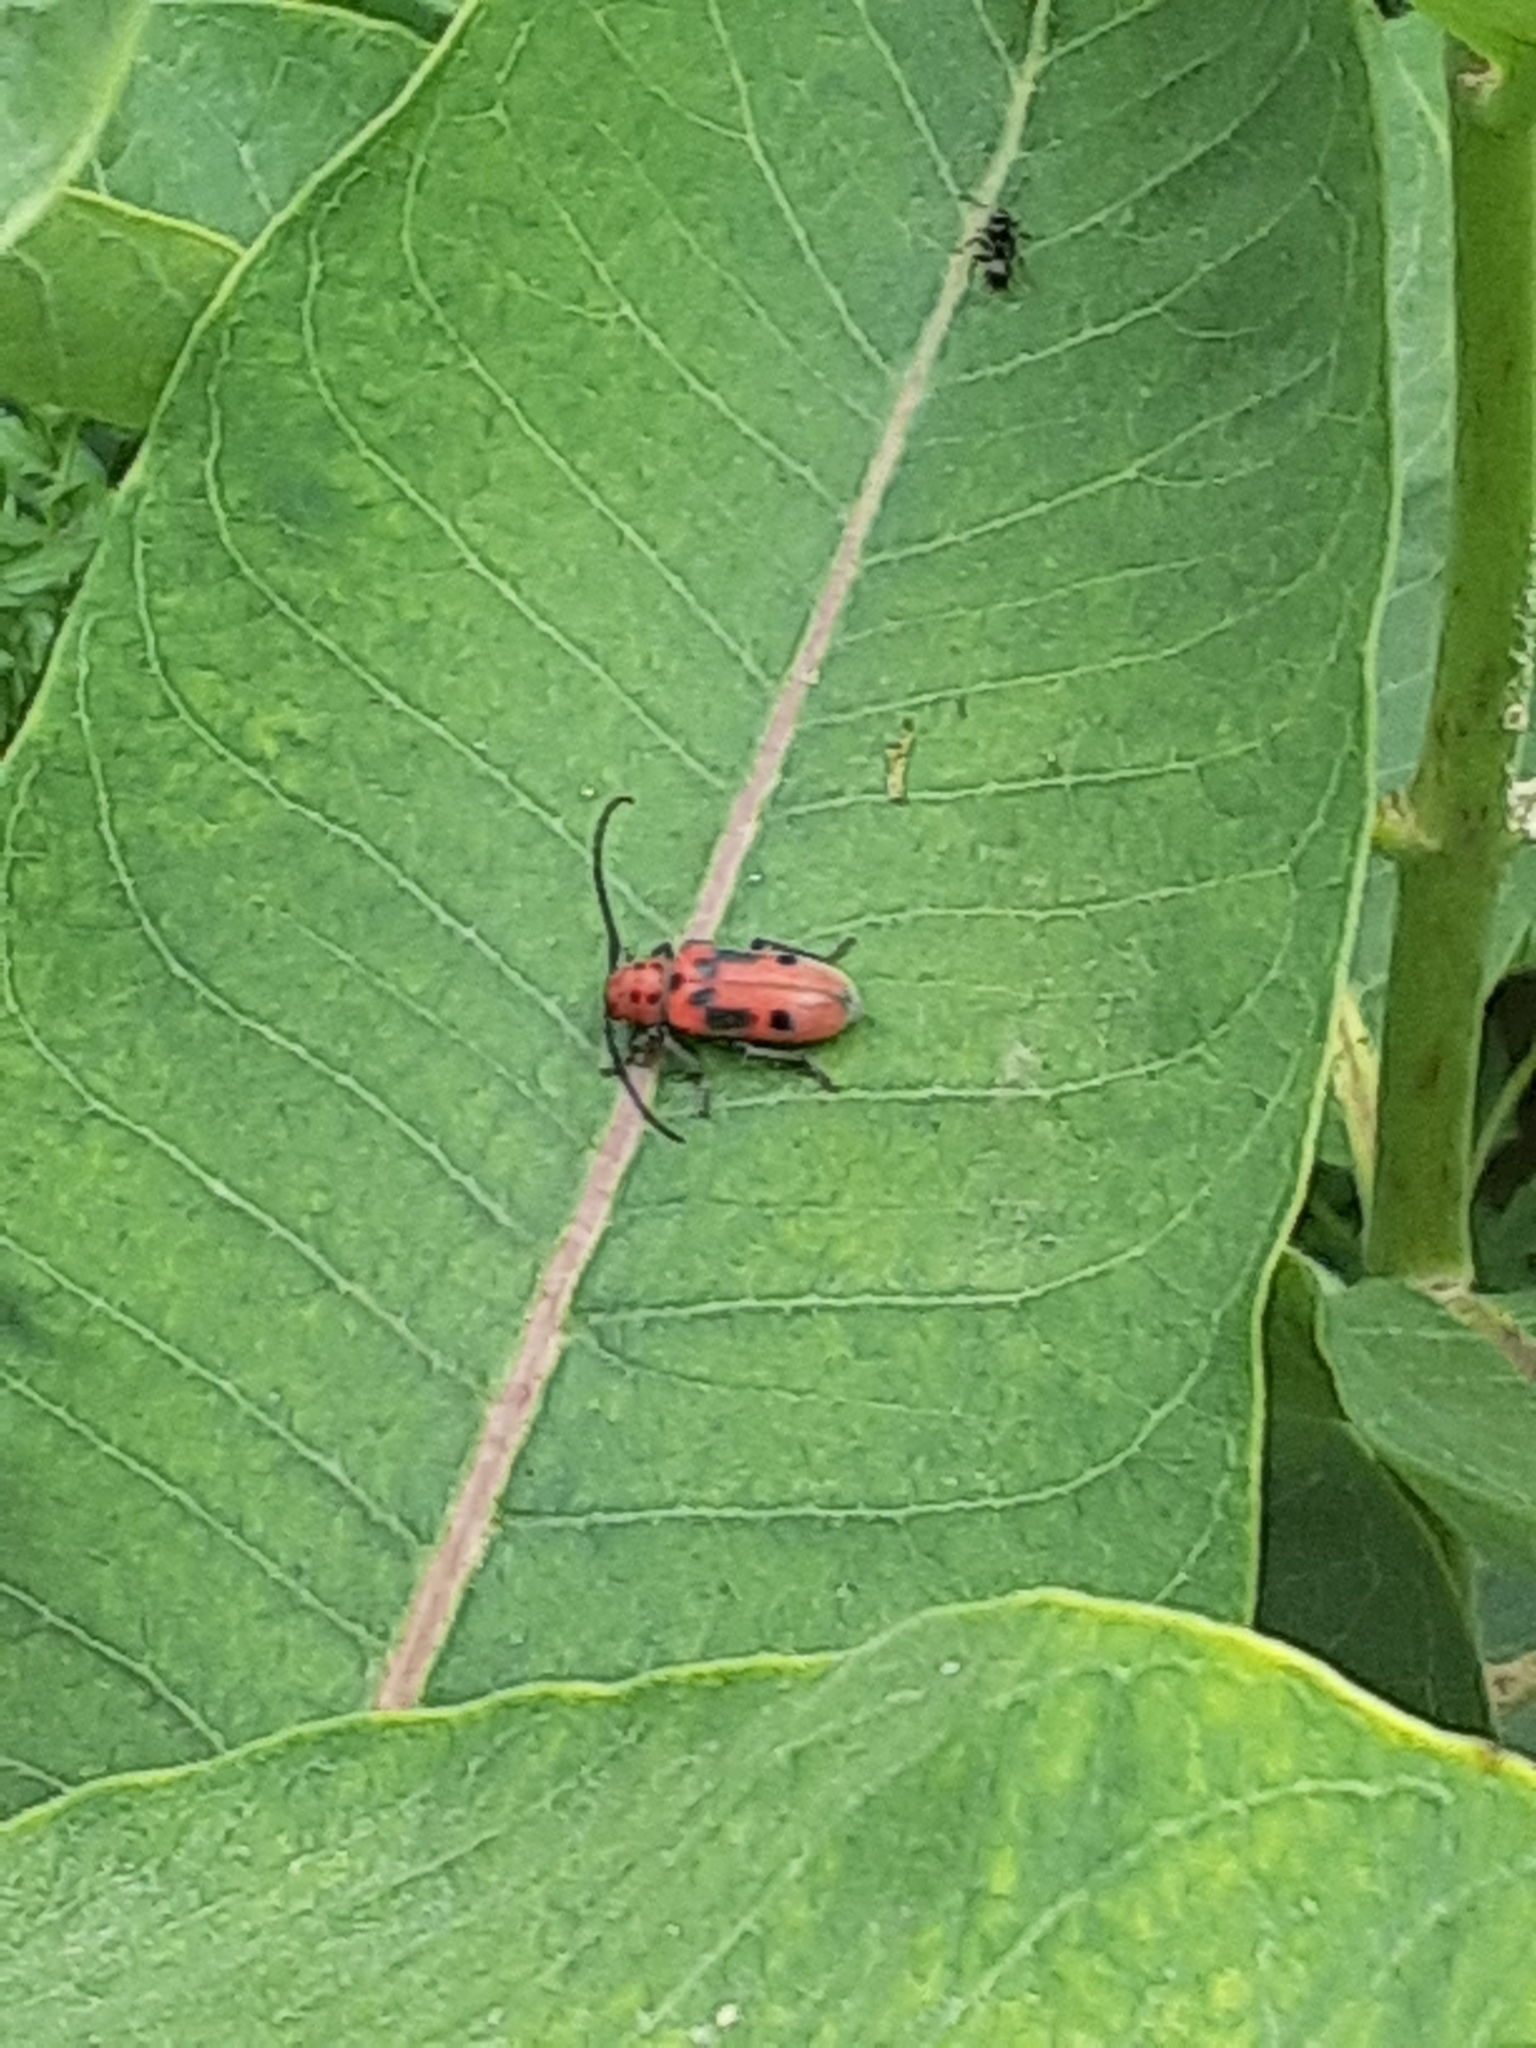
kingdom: Animalia
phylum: Arthropoda
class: Insecta
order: Coleoptera
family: Cerambycidae
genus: Tetraopes
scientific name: Tetraopes tetrophthalmus
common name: Red milkweed beetle
